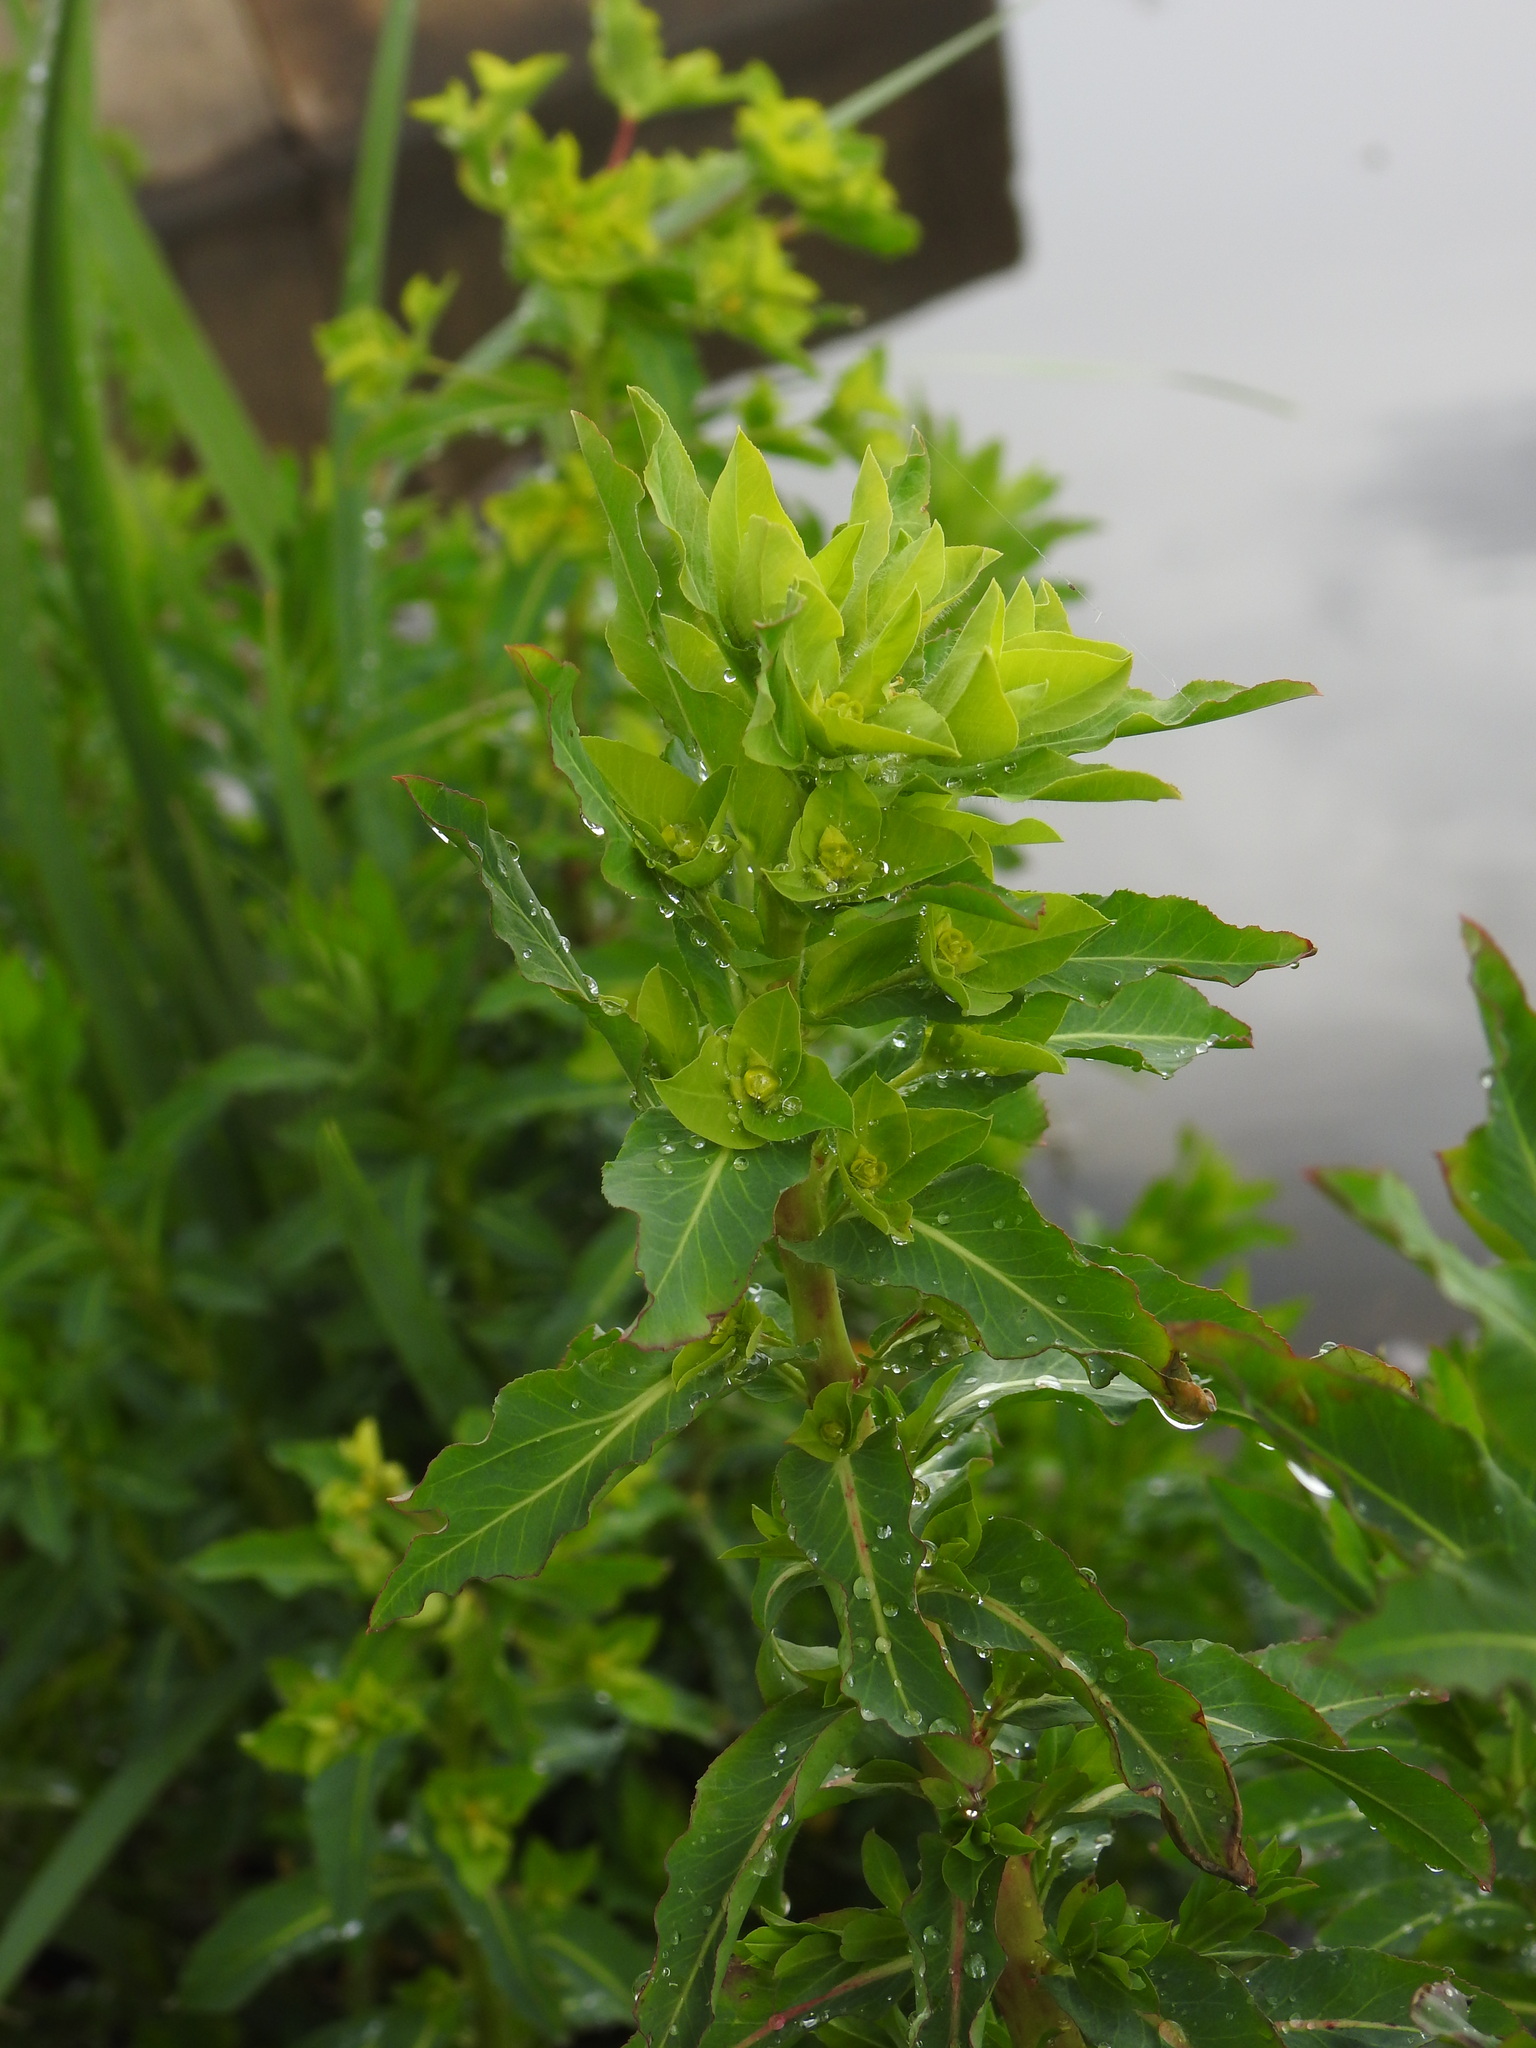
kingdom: Plantae
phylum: Tracheophyta
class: Magnoliopsida
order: Malpighiales
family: Euphorbiaceae
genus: Euphorbia
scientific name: Euphorbia hirsuta
